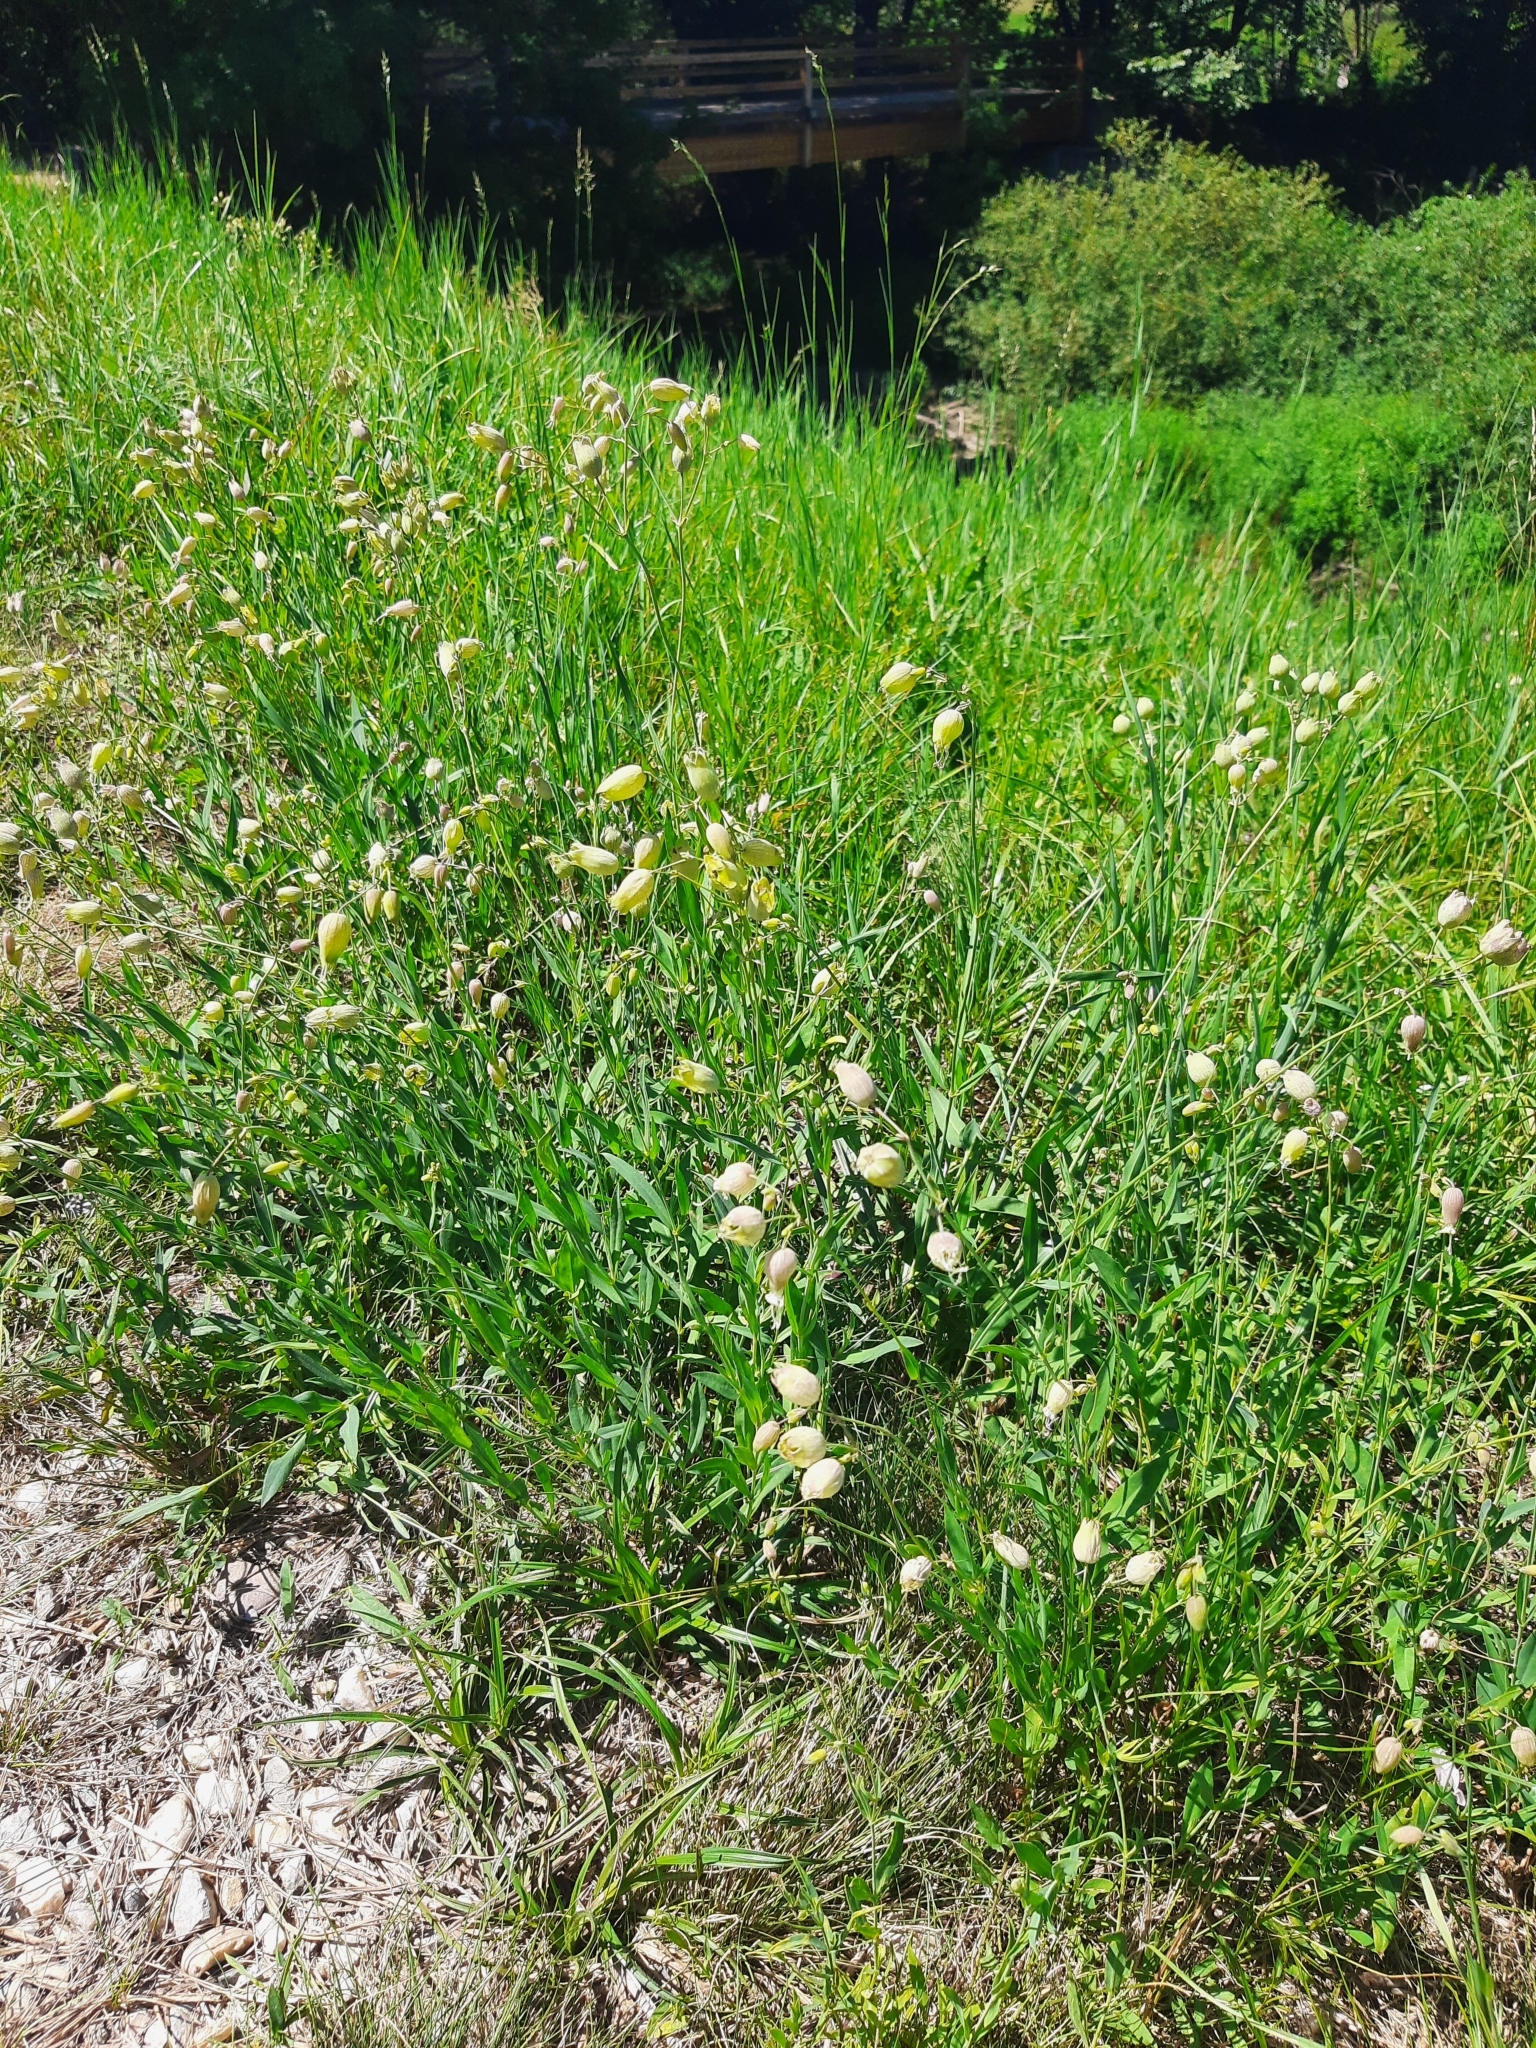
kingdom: Plantae
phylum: Tracheophyta
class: Magnoliopsida
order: Caryophyllales
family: Caryophyllaceae
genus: Silene
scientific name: Silene vulgaris
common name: Bladder campion
